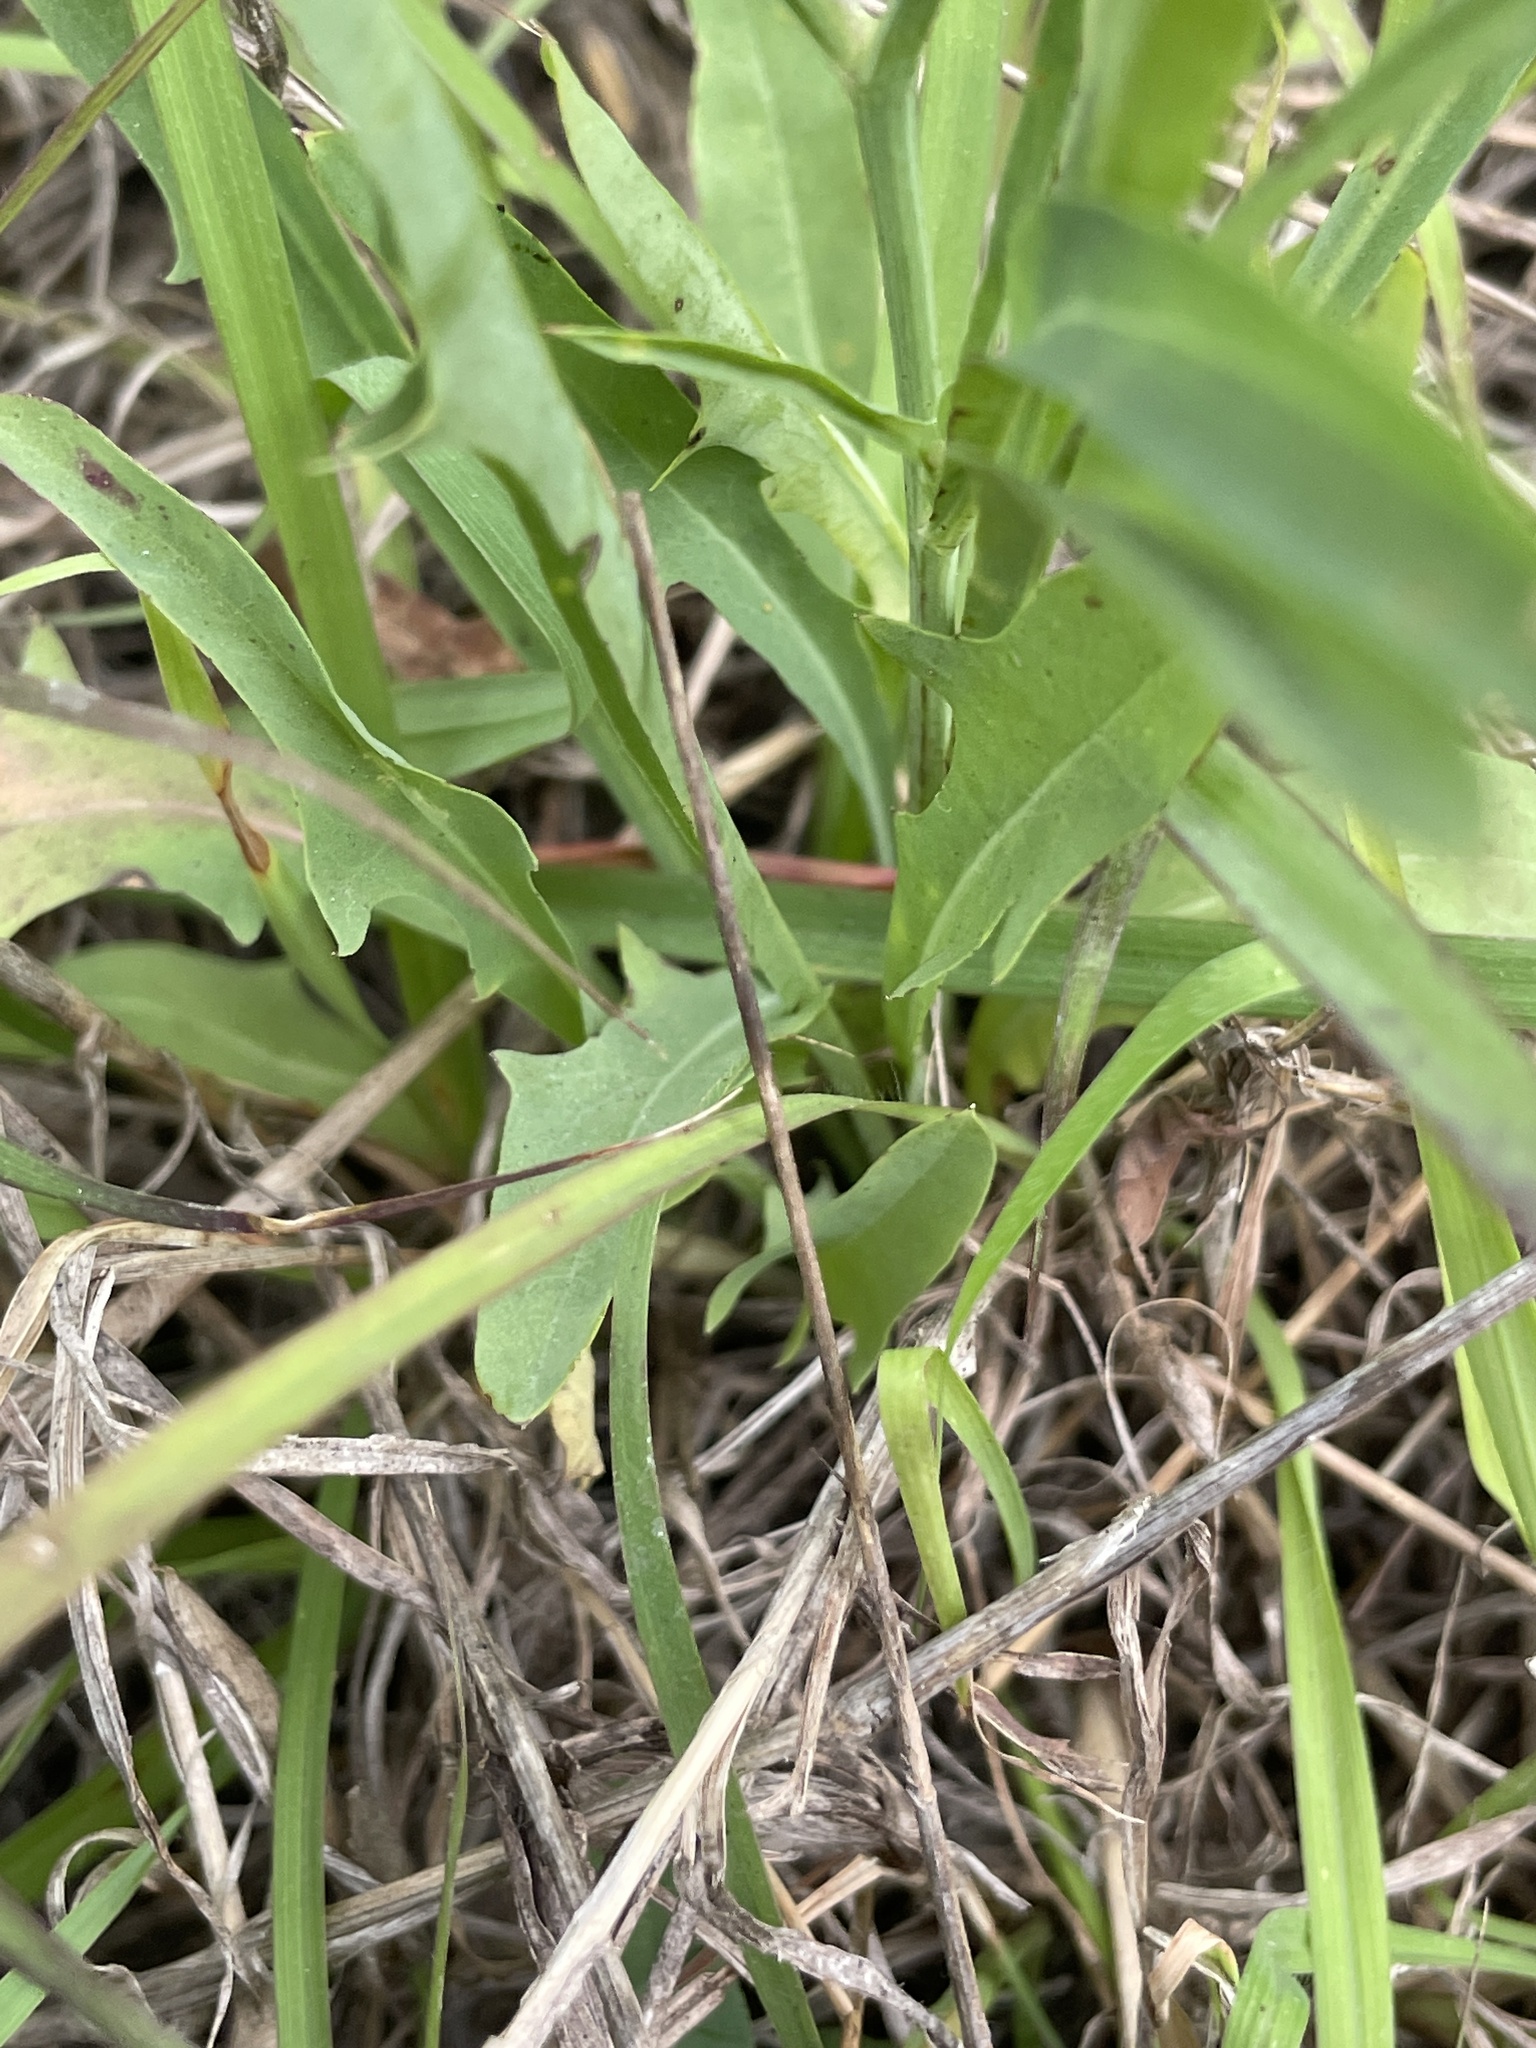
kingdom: Plantae
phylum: Tracheophyta
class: Magnoliopsida
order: Asterales
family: Asteraceae
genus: Pinaropappus
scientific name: Pinaropappus roseus
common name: Rock-lettuce
